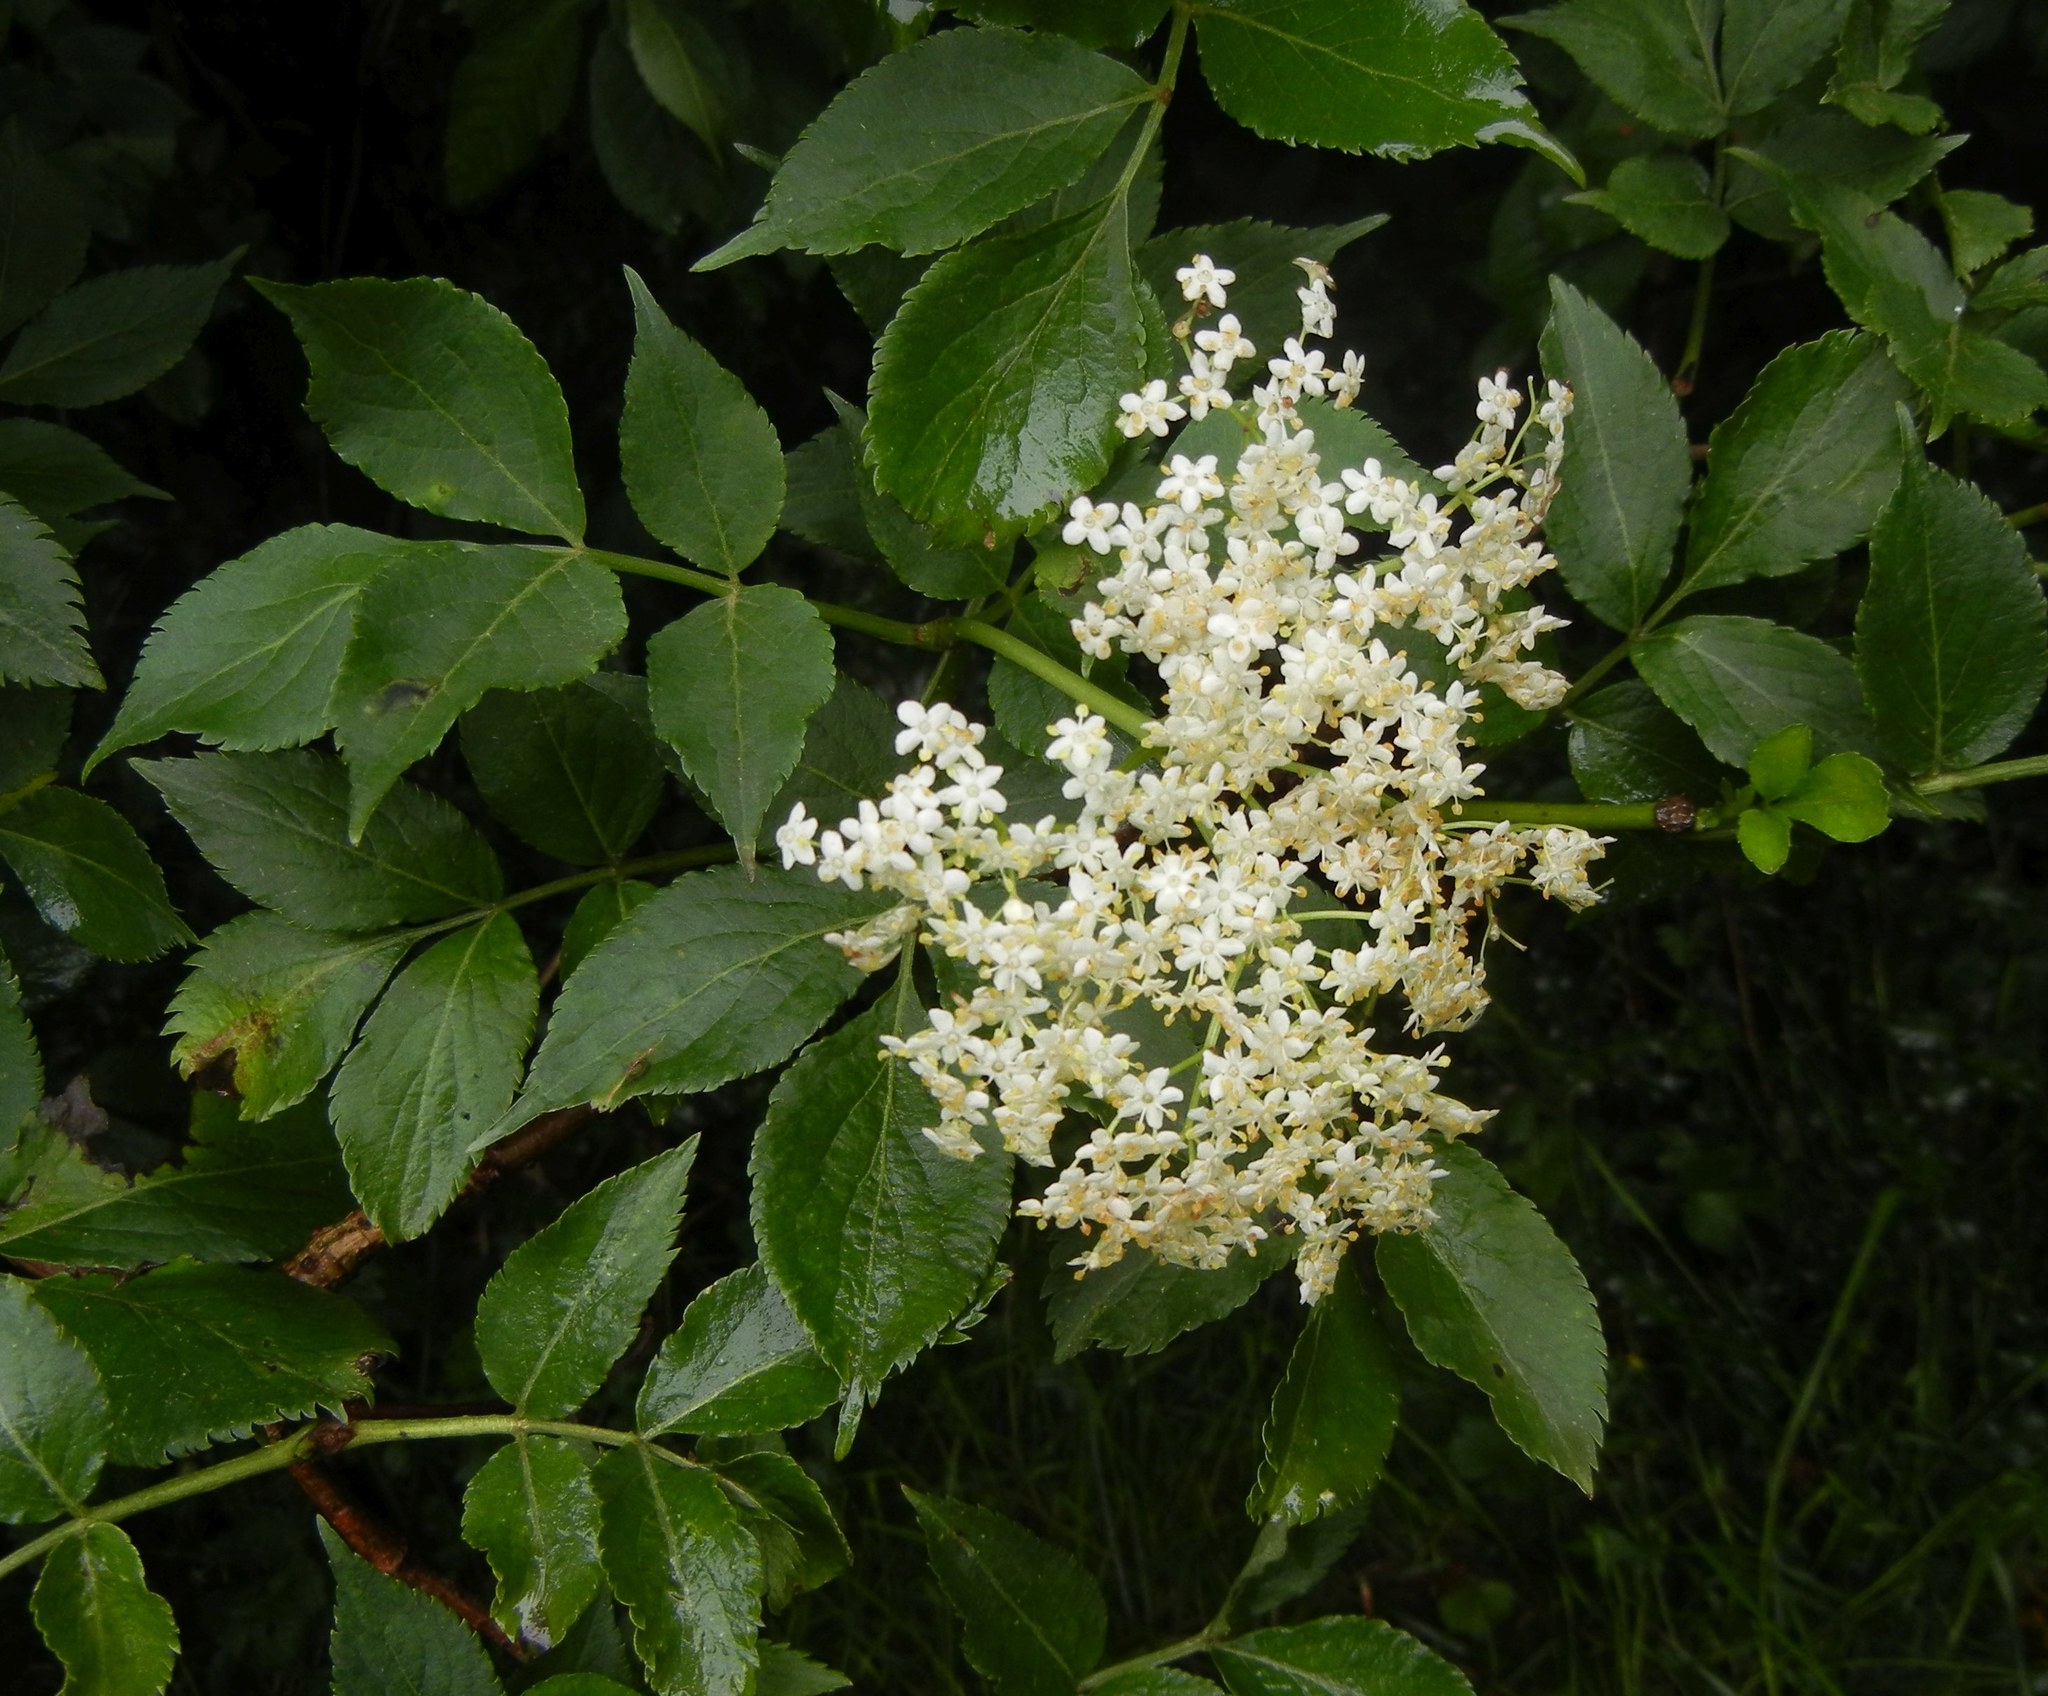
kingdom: Plantae
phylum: Tracheophyta
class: Magnoliopsida
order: Dipsacales
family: Viburnaceae
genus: Sambucus
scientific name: Sambucus nigra
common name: Elder
